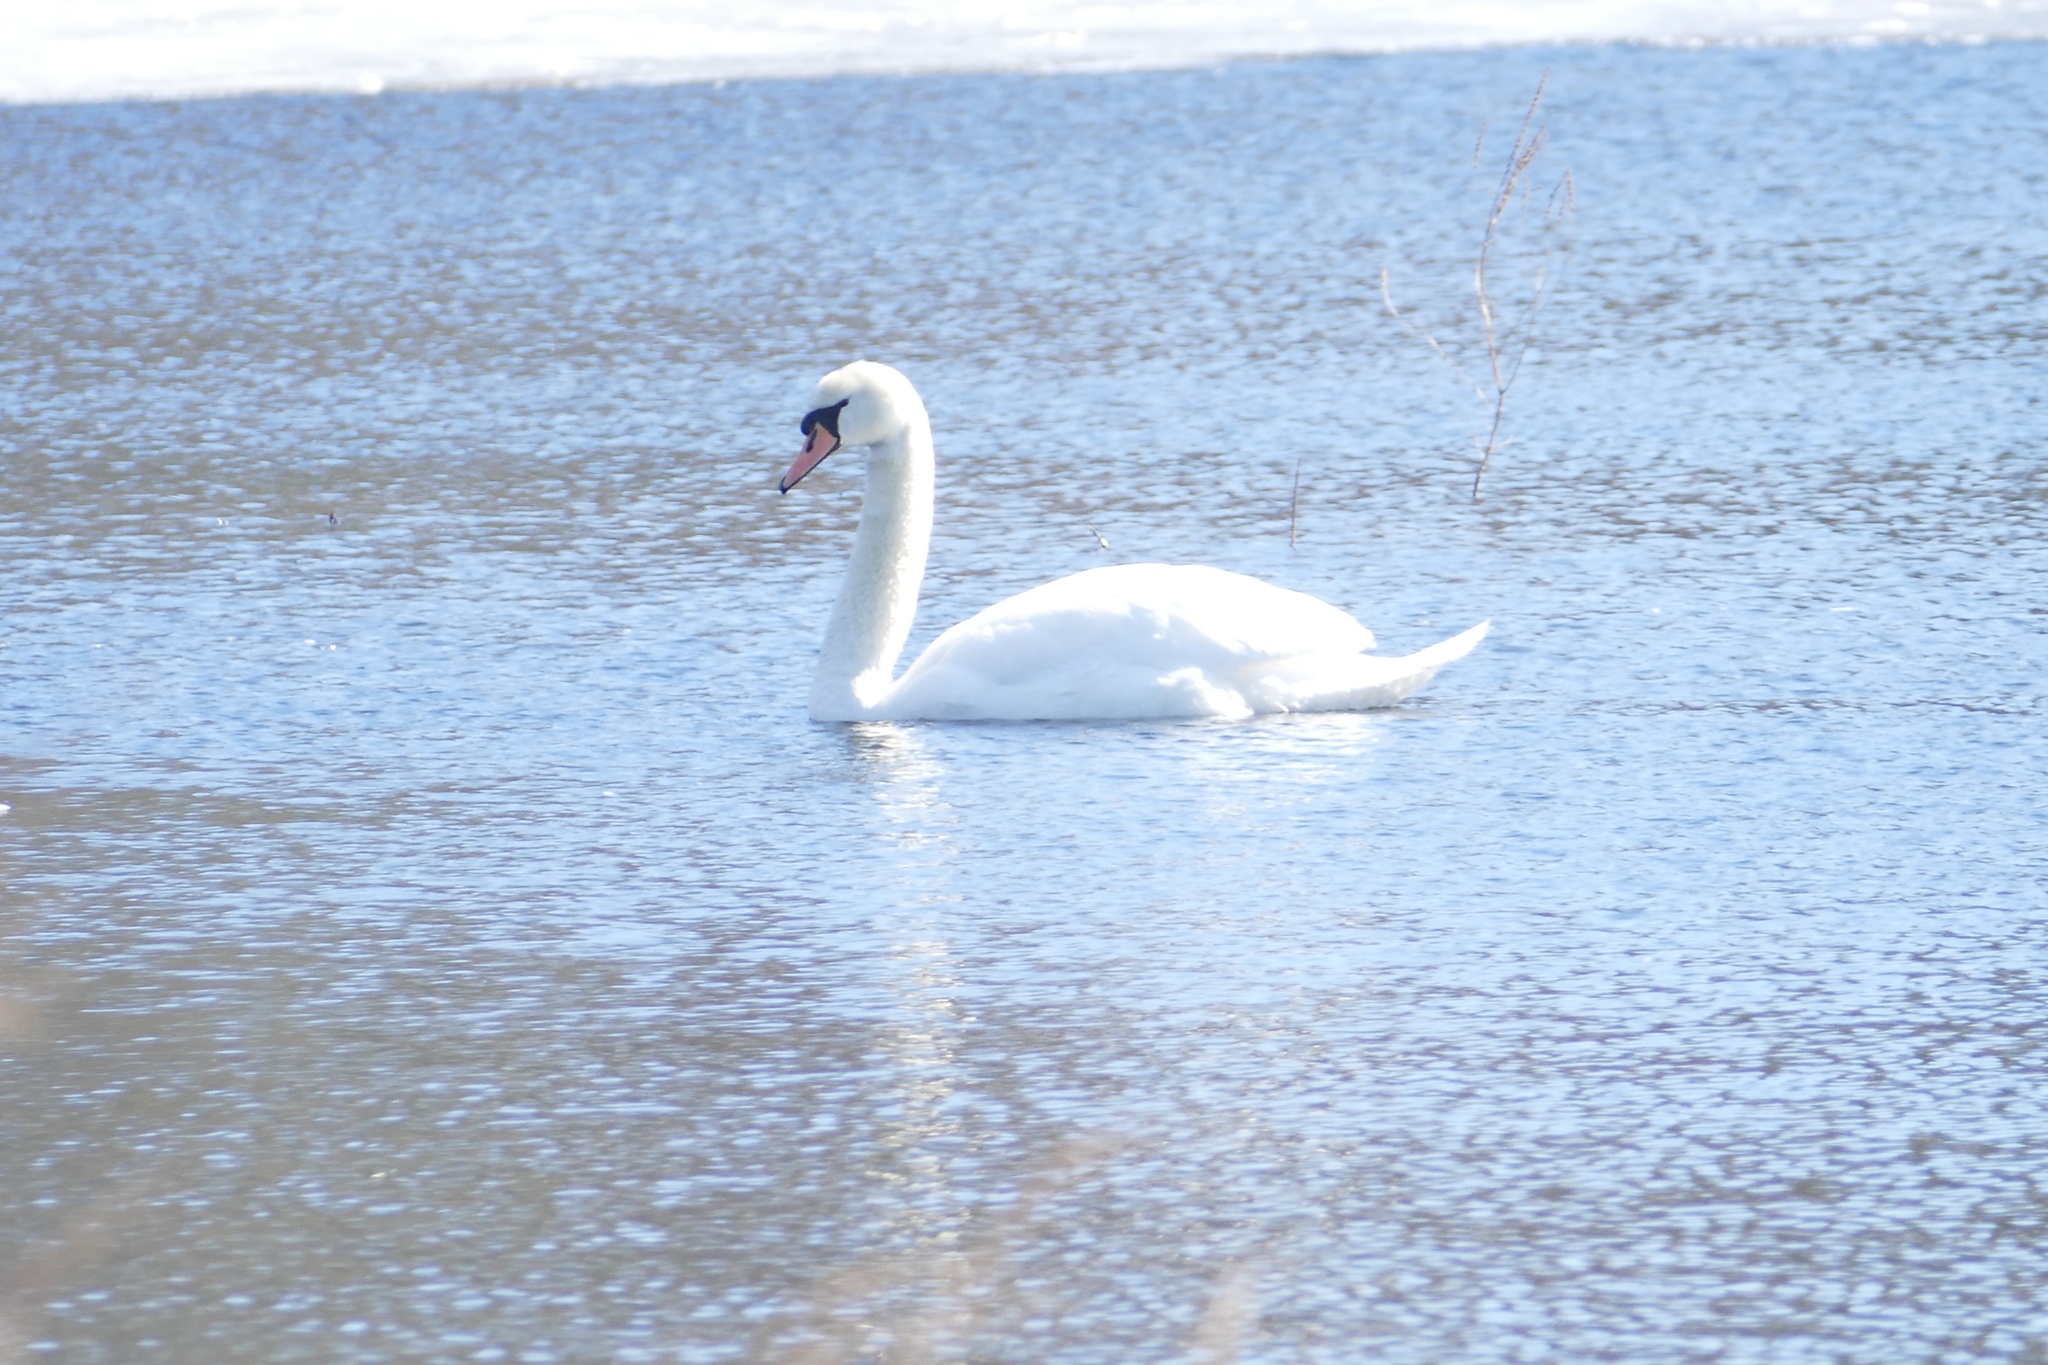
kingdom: Animalia
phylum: Chordata
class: Aves
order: Anseriformes
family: Anatidae
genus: Cygnus
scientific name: Cygnus olor
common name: Mute swan
